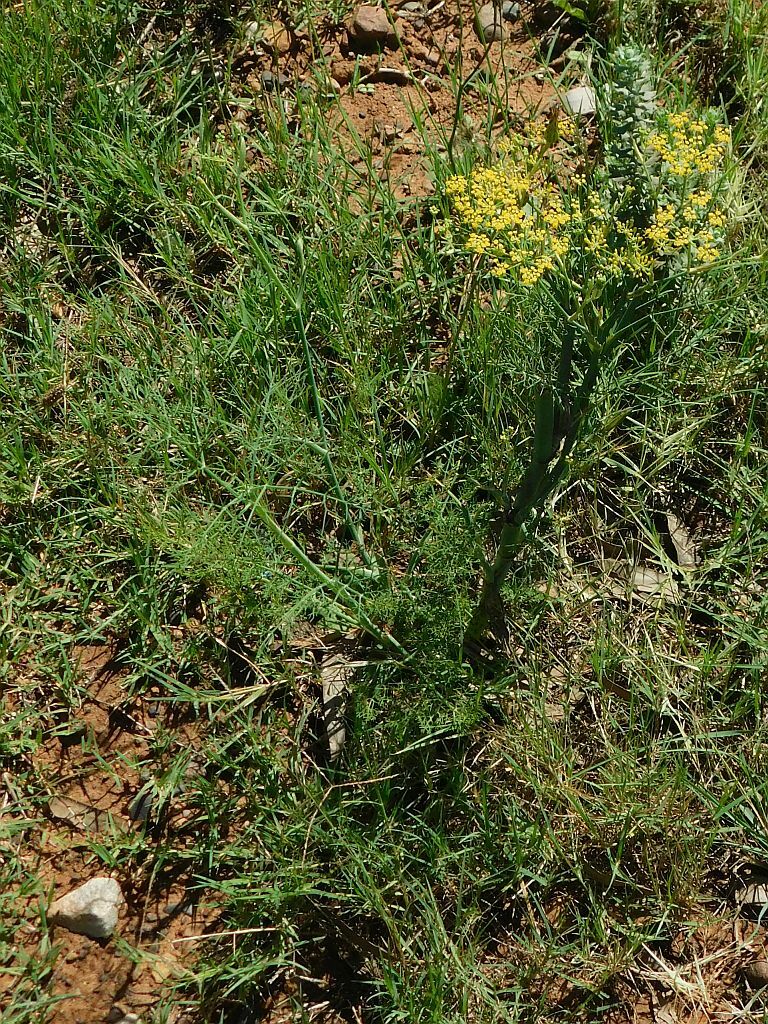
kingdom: Plantae
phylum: Tracheophyta
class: Magnoliopsida
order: Apiales
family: Apiaceae
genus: Foeniculum
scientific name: Foeniculum vulgare
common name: Fennel
